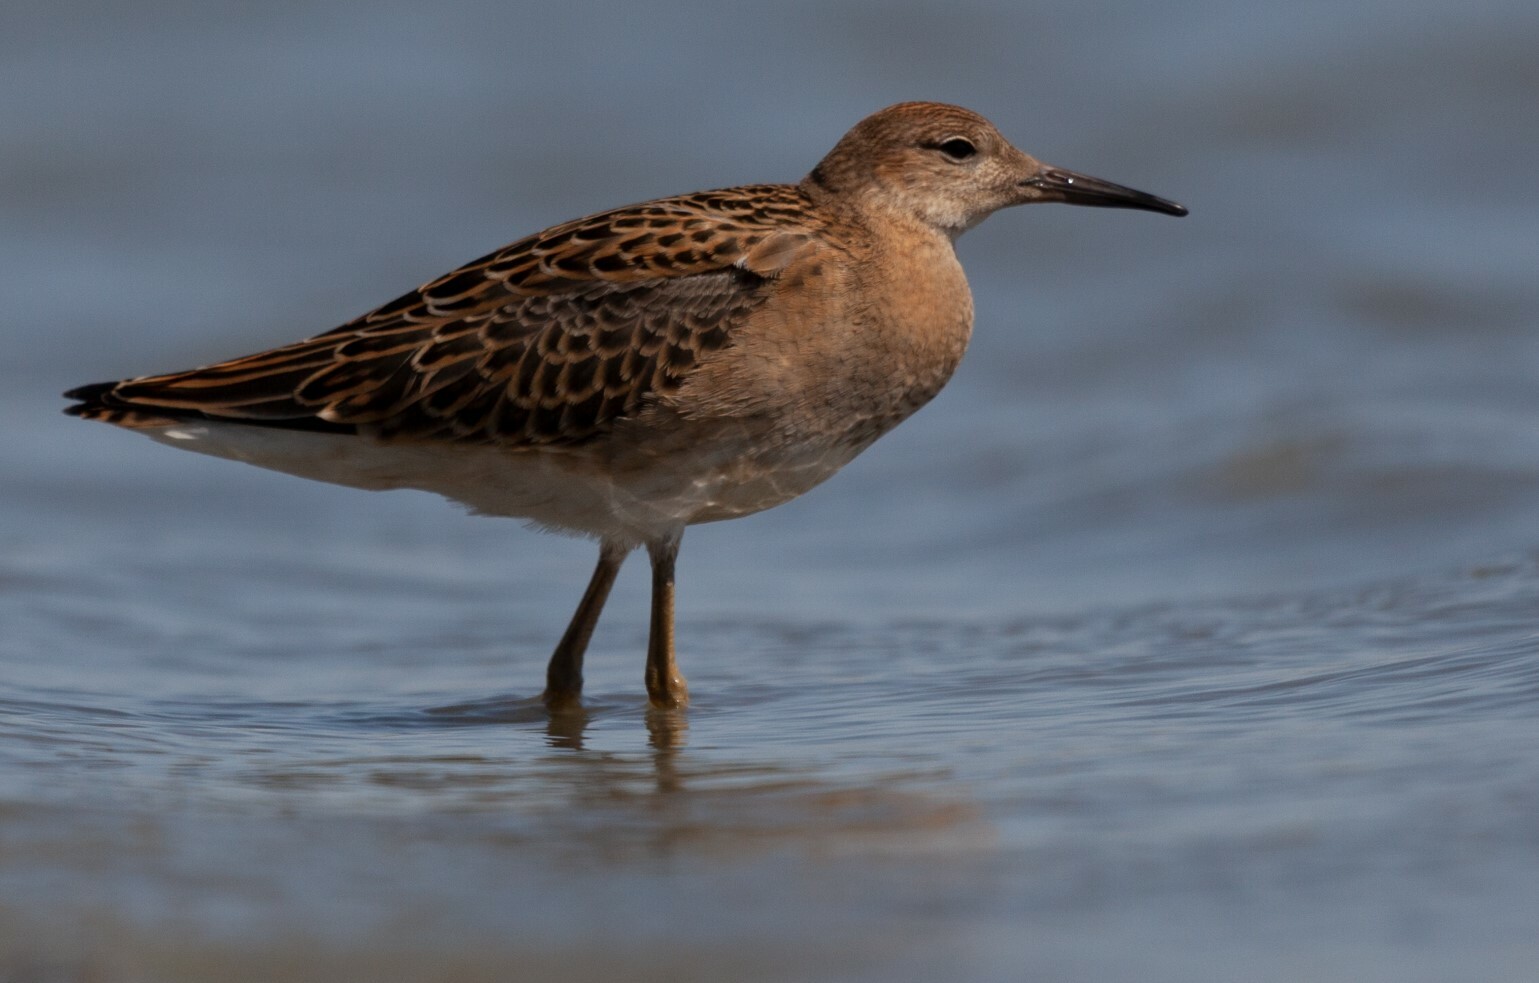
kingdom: Animalia
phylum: Chordata
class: Aves
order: Charadriiformes
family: Scolopacidae
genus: Calidris
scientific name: Calidris pugnax
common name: Ruff
